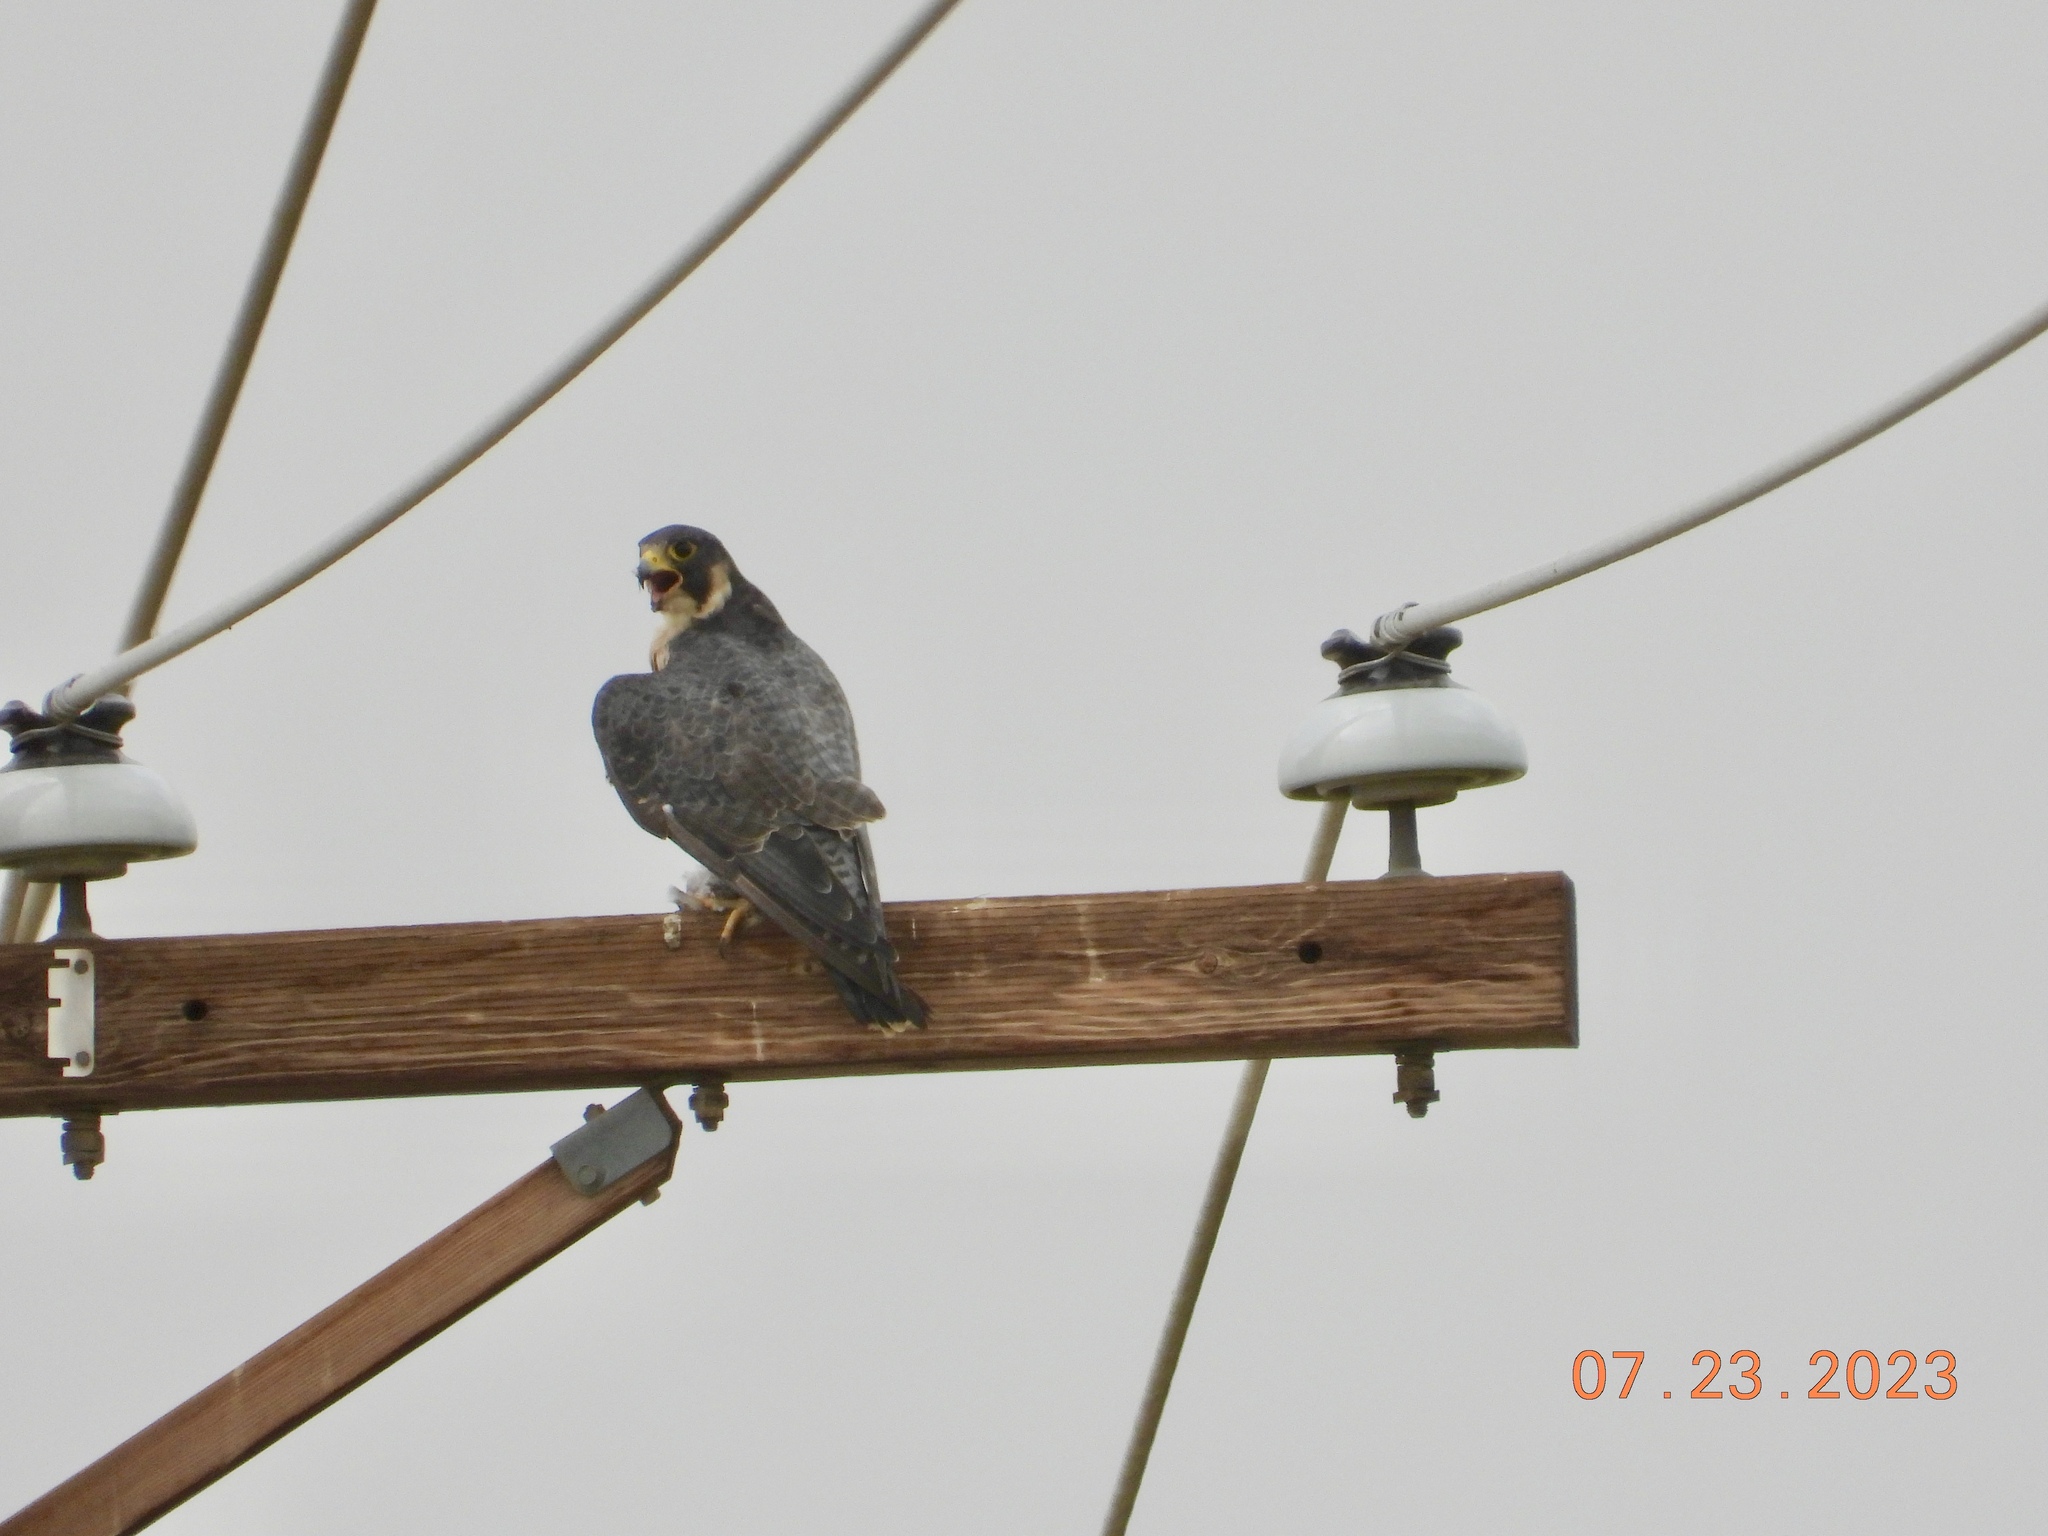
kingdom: Animalia
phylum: Chordata
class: Aves
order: Falconiformes
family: Falconidae
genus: Falco
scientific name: Falco peregrinus
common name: Peregrine falcon
